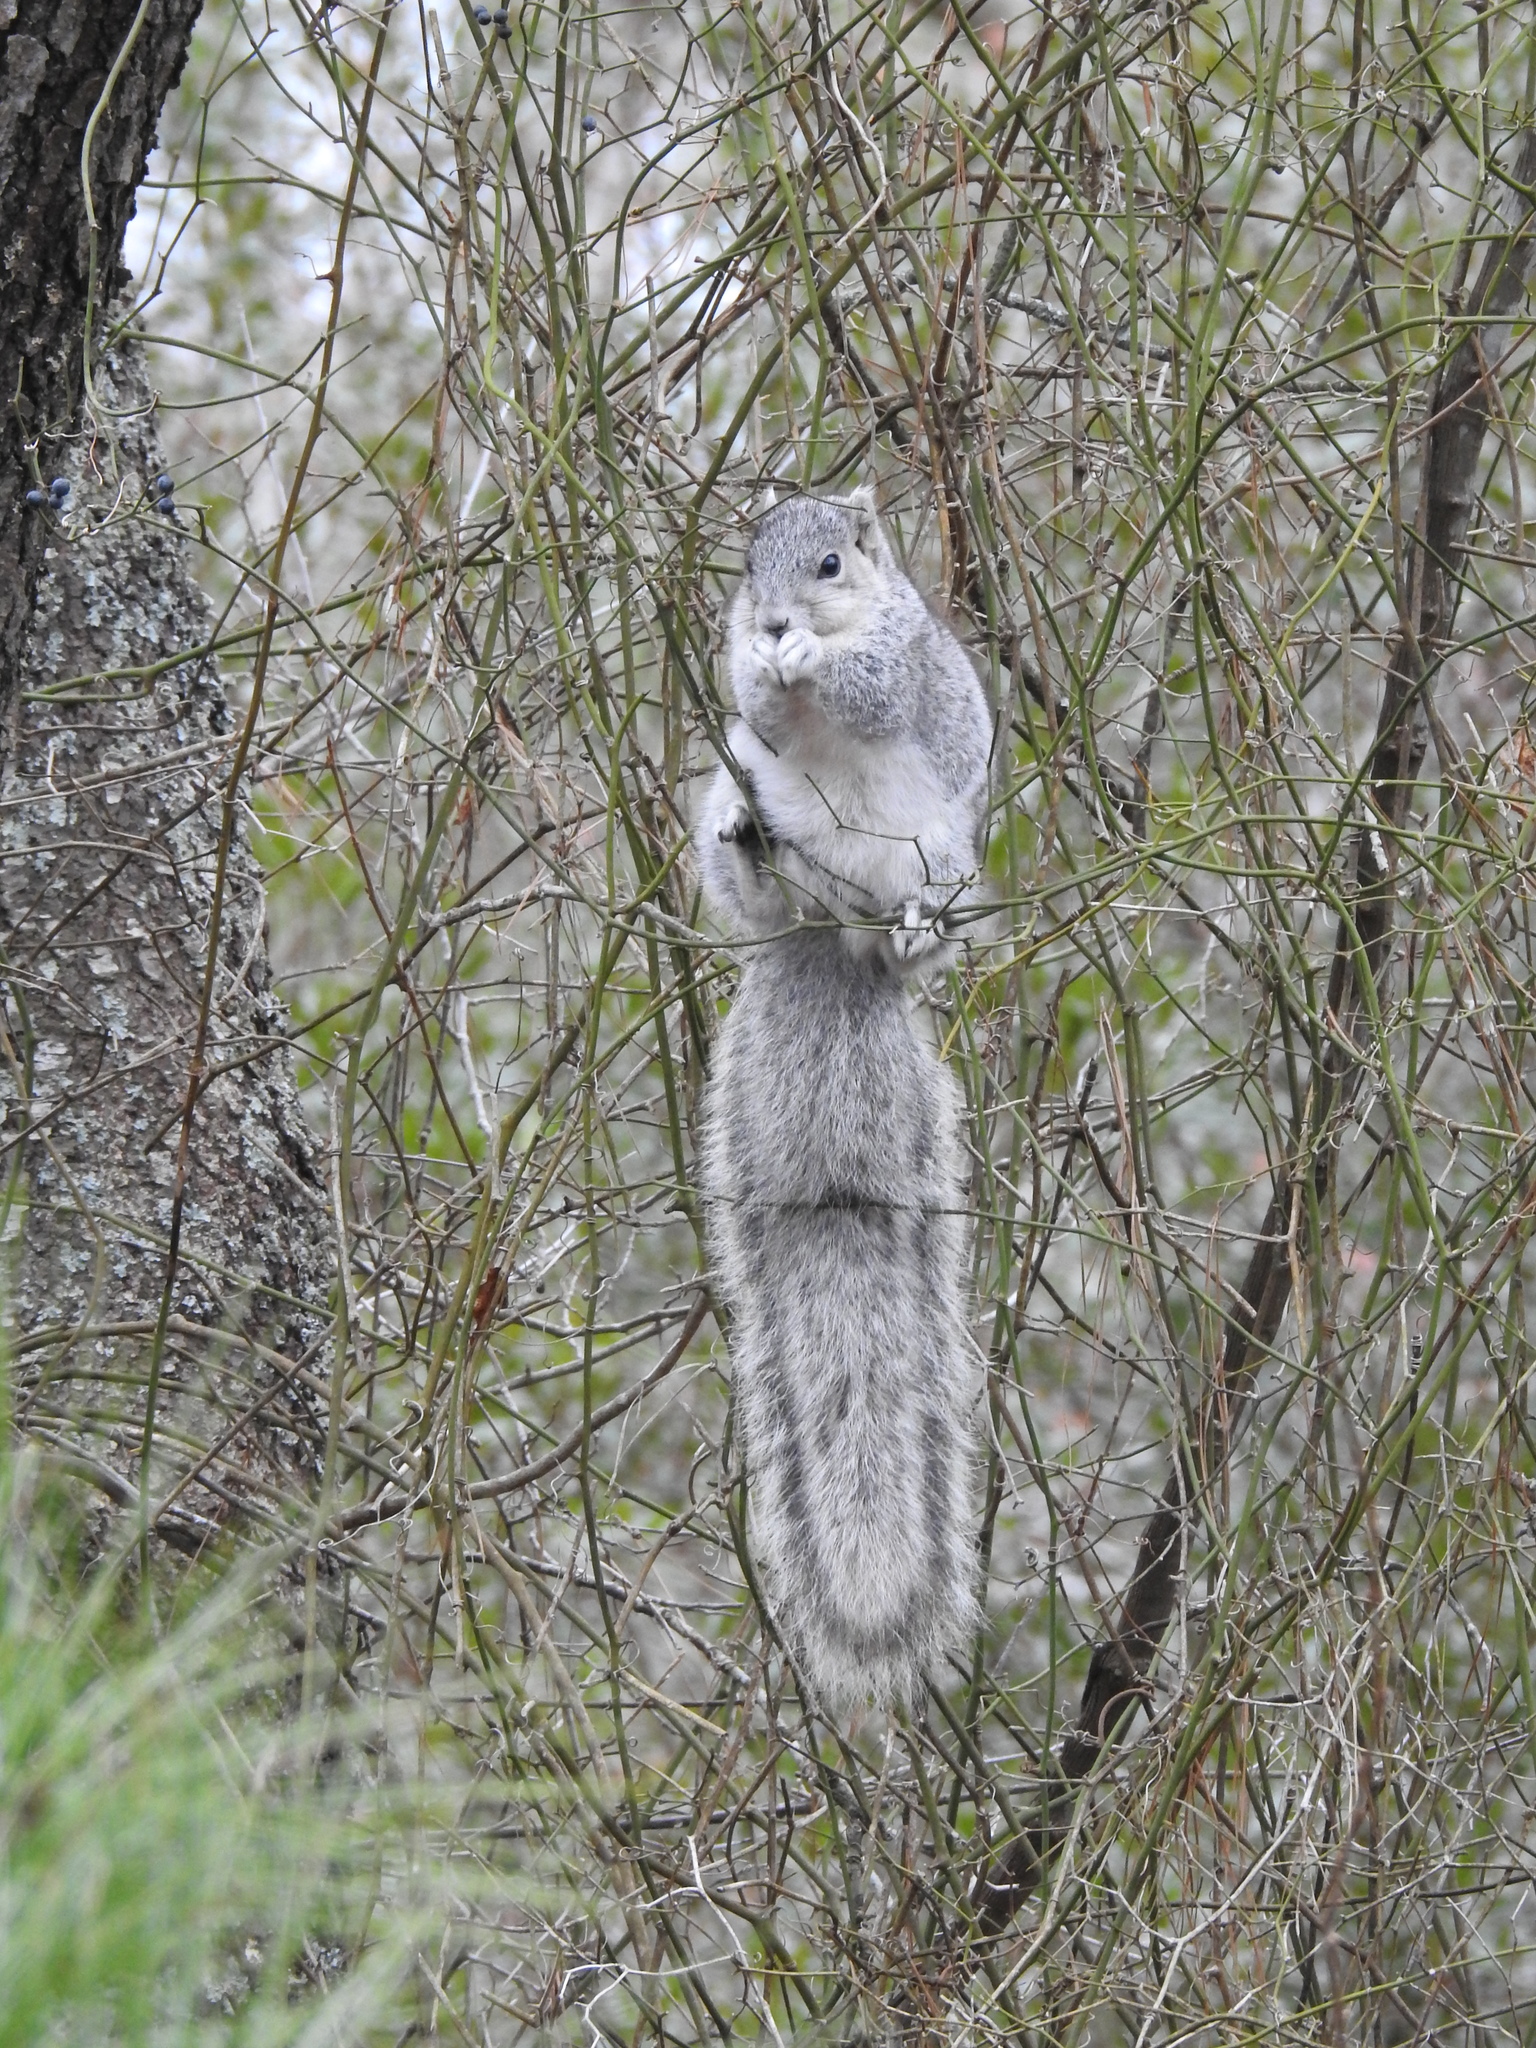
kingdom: Animalia
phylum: Chordata
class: Mammalia
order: Rodentia
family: Sciuridae
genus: Sciurus
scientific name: Sciurus niger
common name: Fox squirrel
